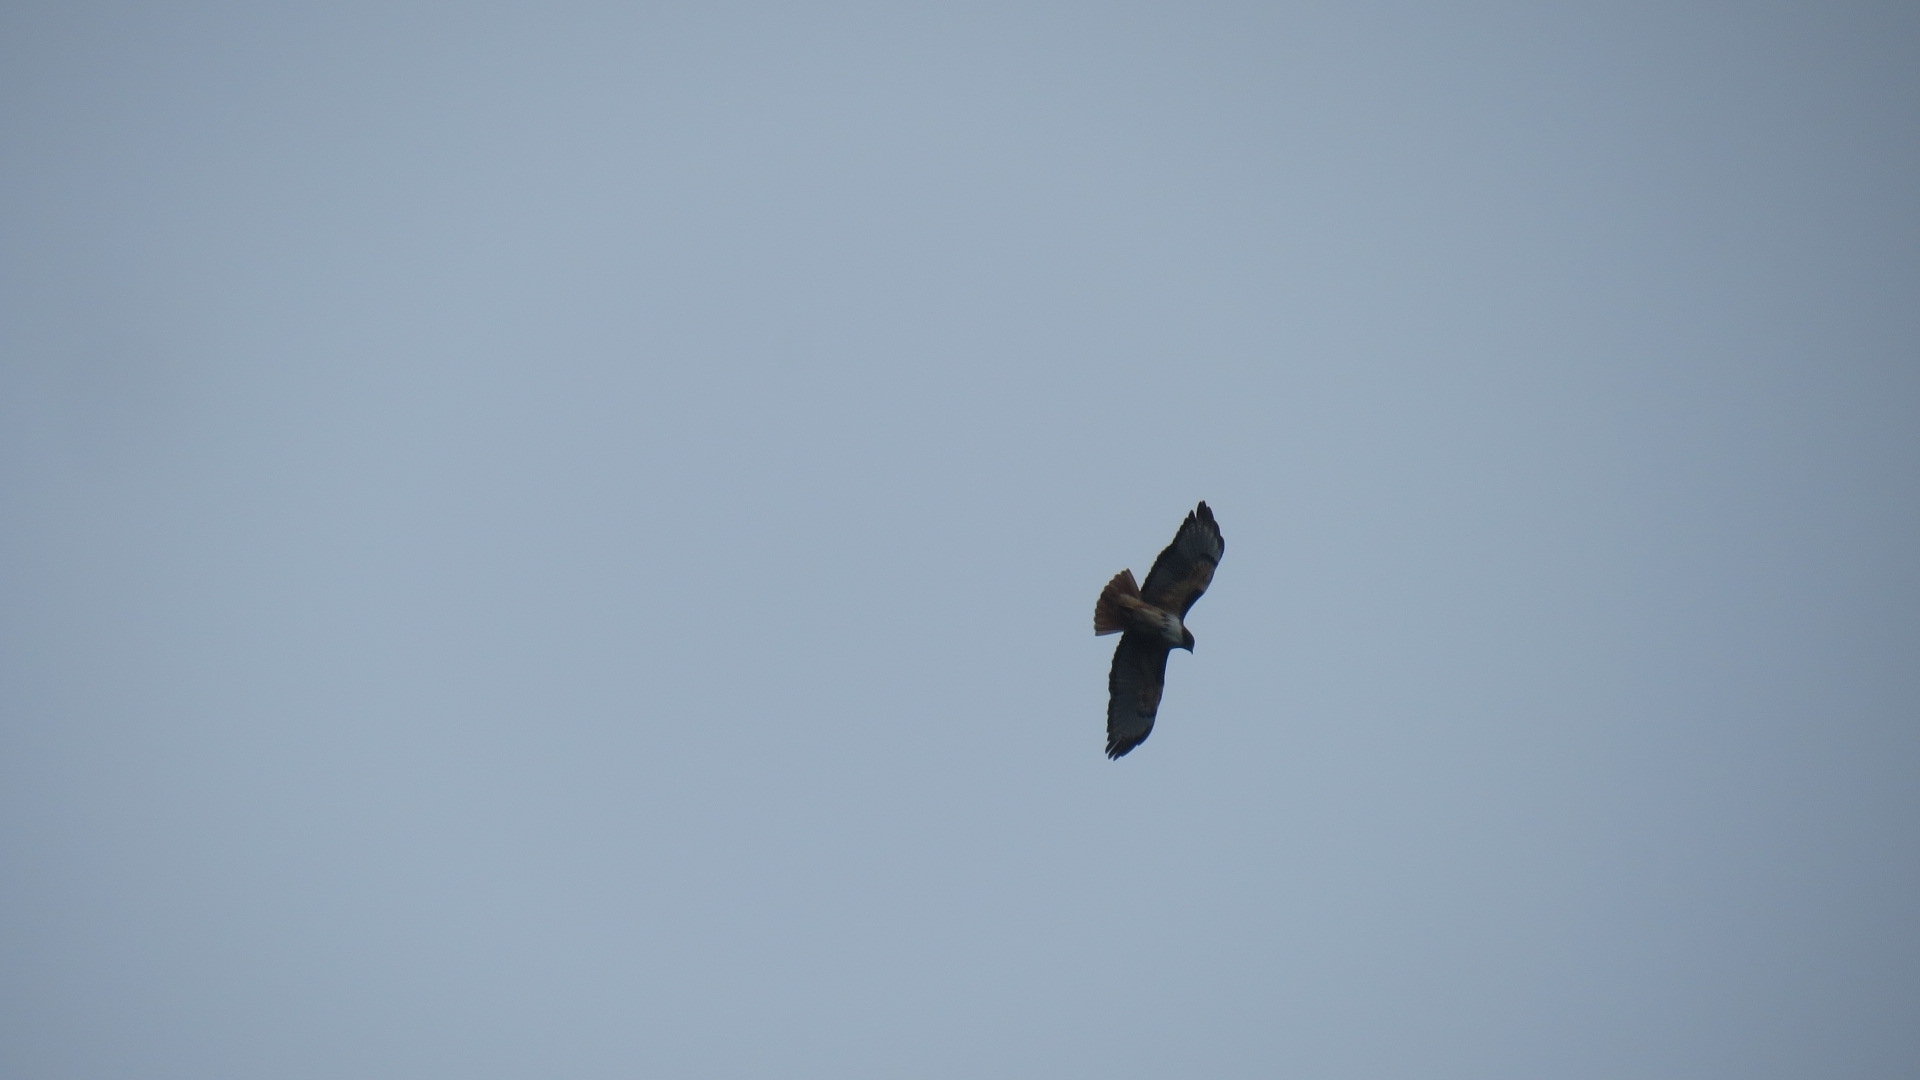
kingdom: Animalia
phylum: Chordata
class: Aves
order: Accipitriformes
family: Accipitridae
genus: Buteo
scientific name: Buteo jamaicensis
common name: Red-tailed hawk
